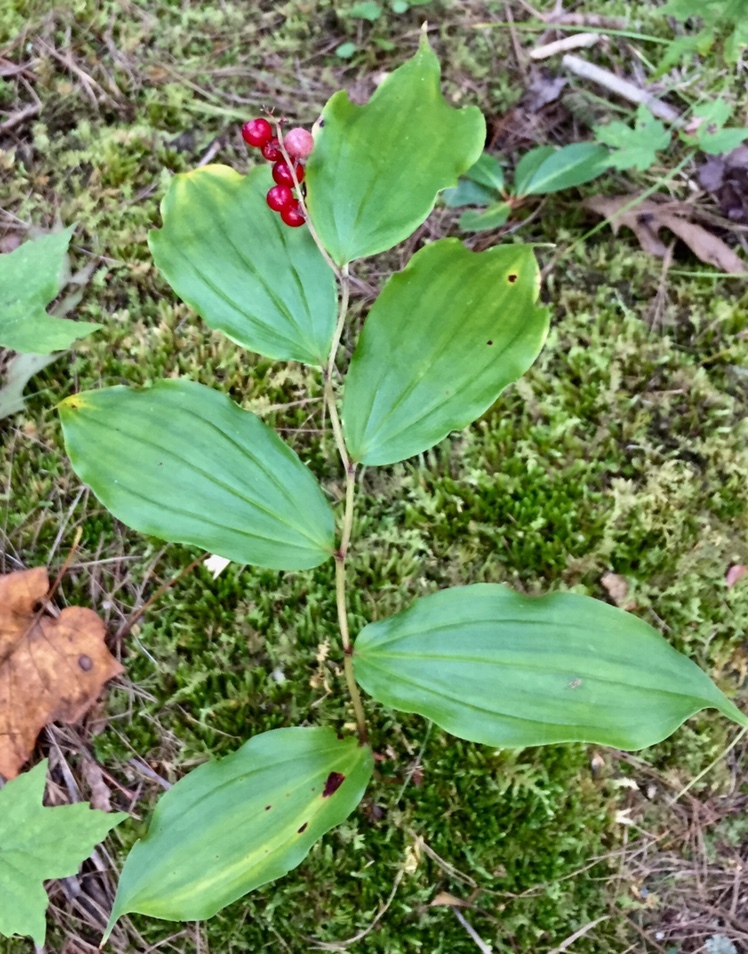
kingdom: Plantae
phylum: Tracheophyta
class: Liliopsida
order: Asparagales
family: Asparagaceae
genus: Maianthemum
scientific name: Maianthemum racemosum
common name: False spikenard
